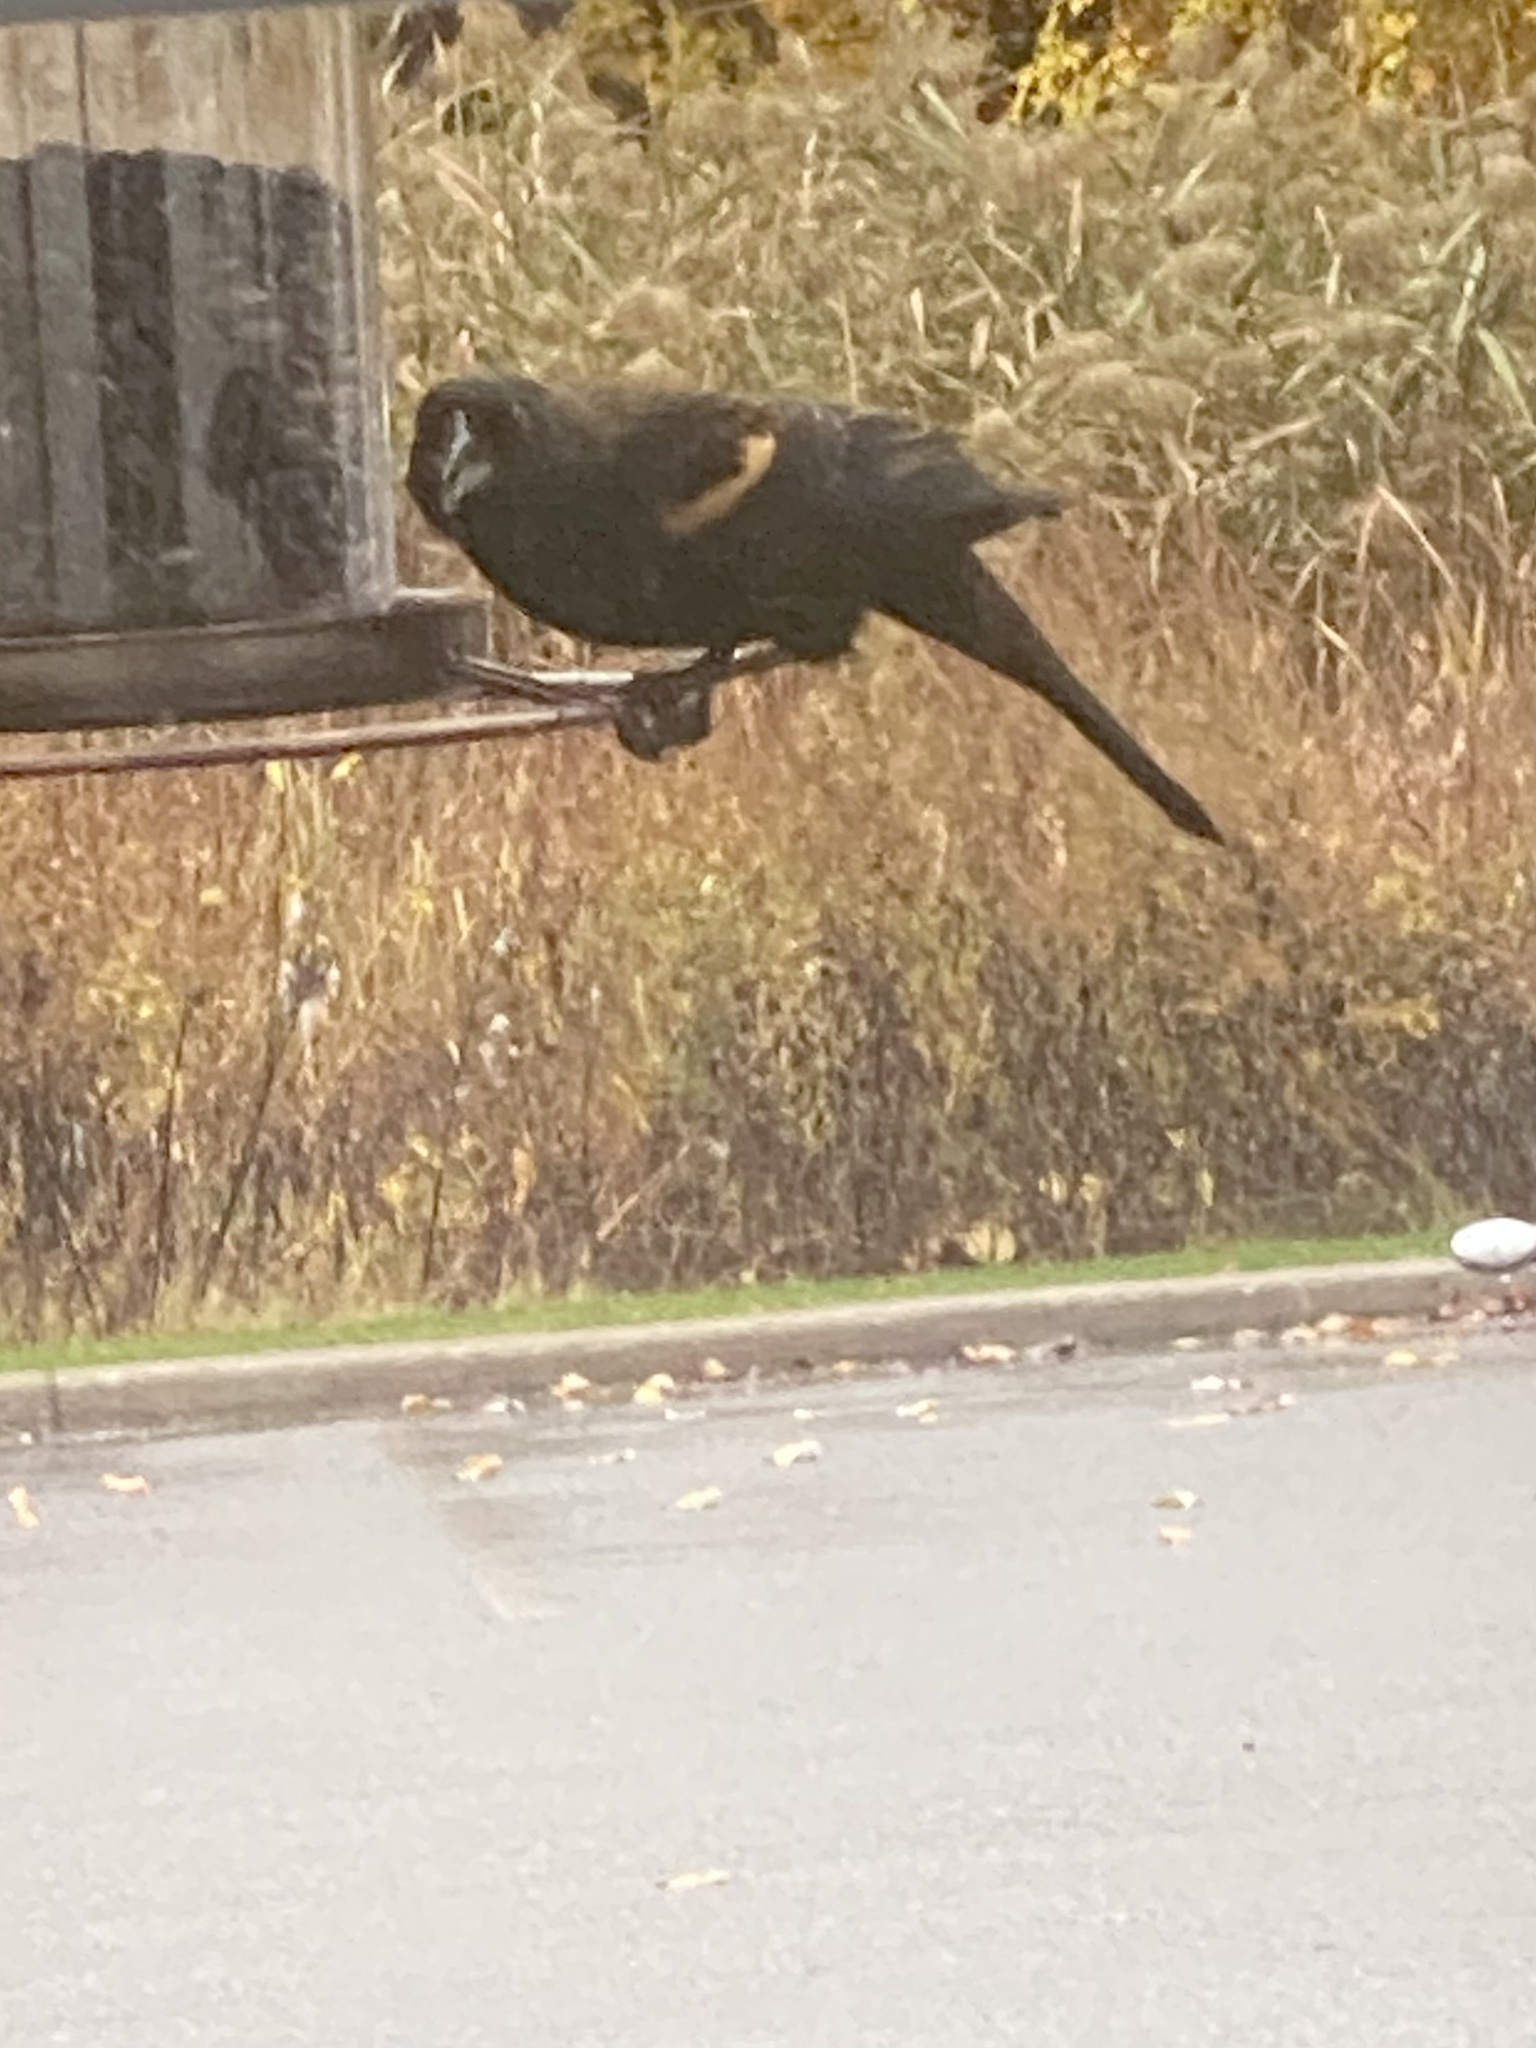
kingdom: Animalia
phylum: Chordata
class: Aves
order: Passeriformes
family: Icteridae
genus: Agelaius
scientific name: Agelaius phoeniceus
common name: Red-winged blackbird
